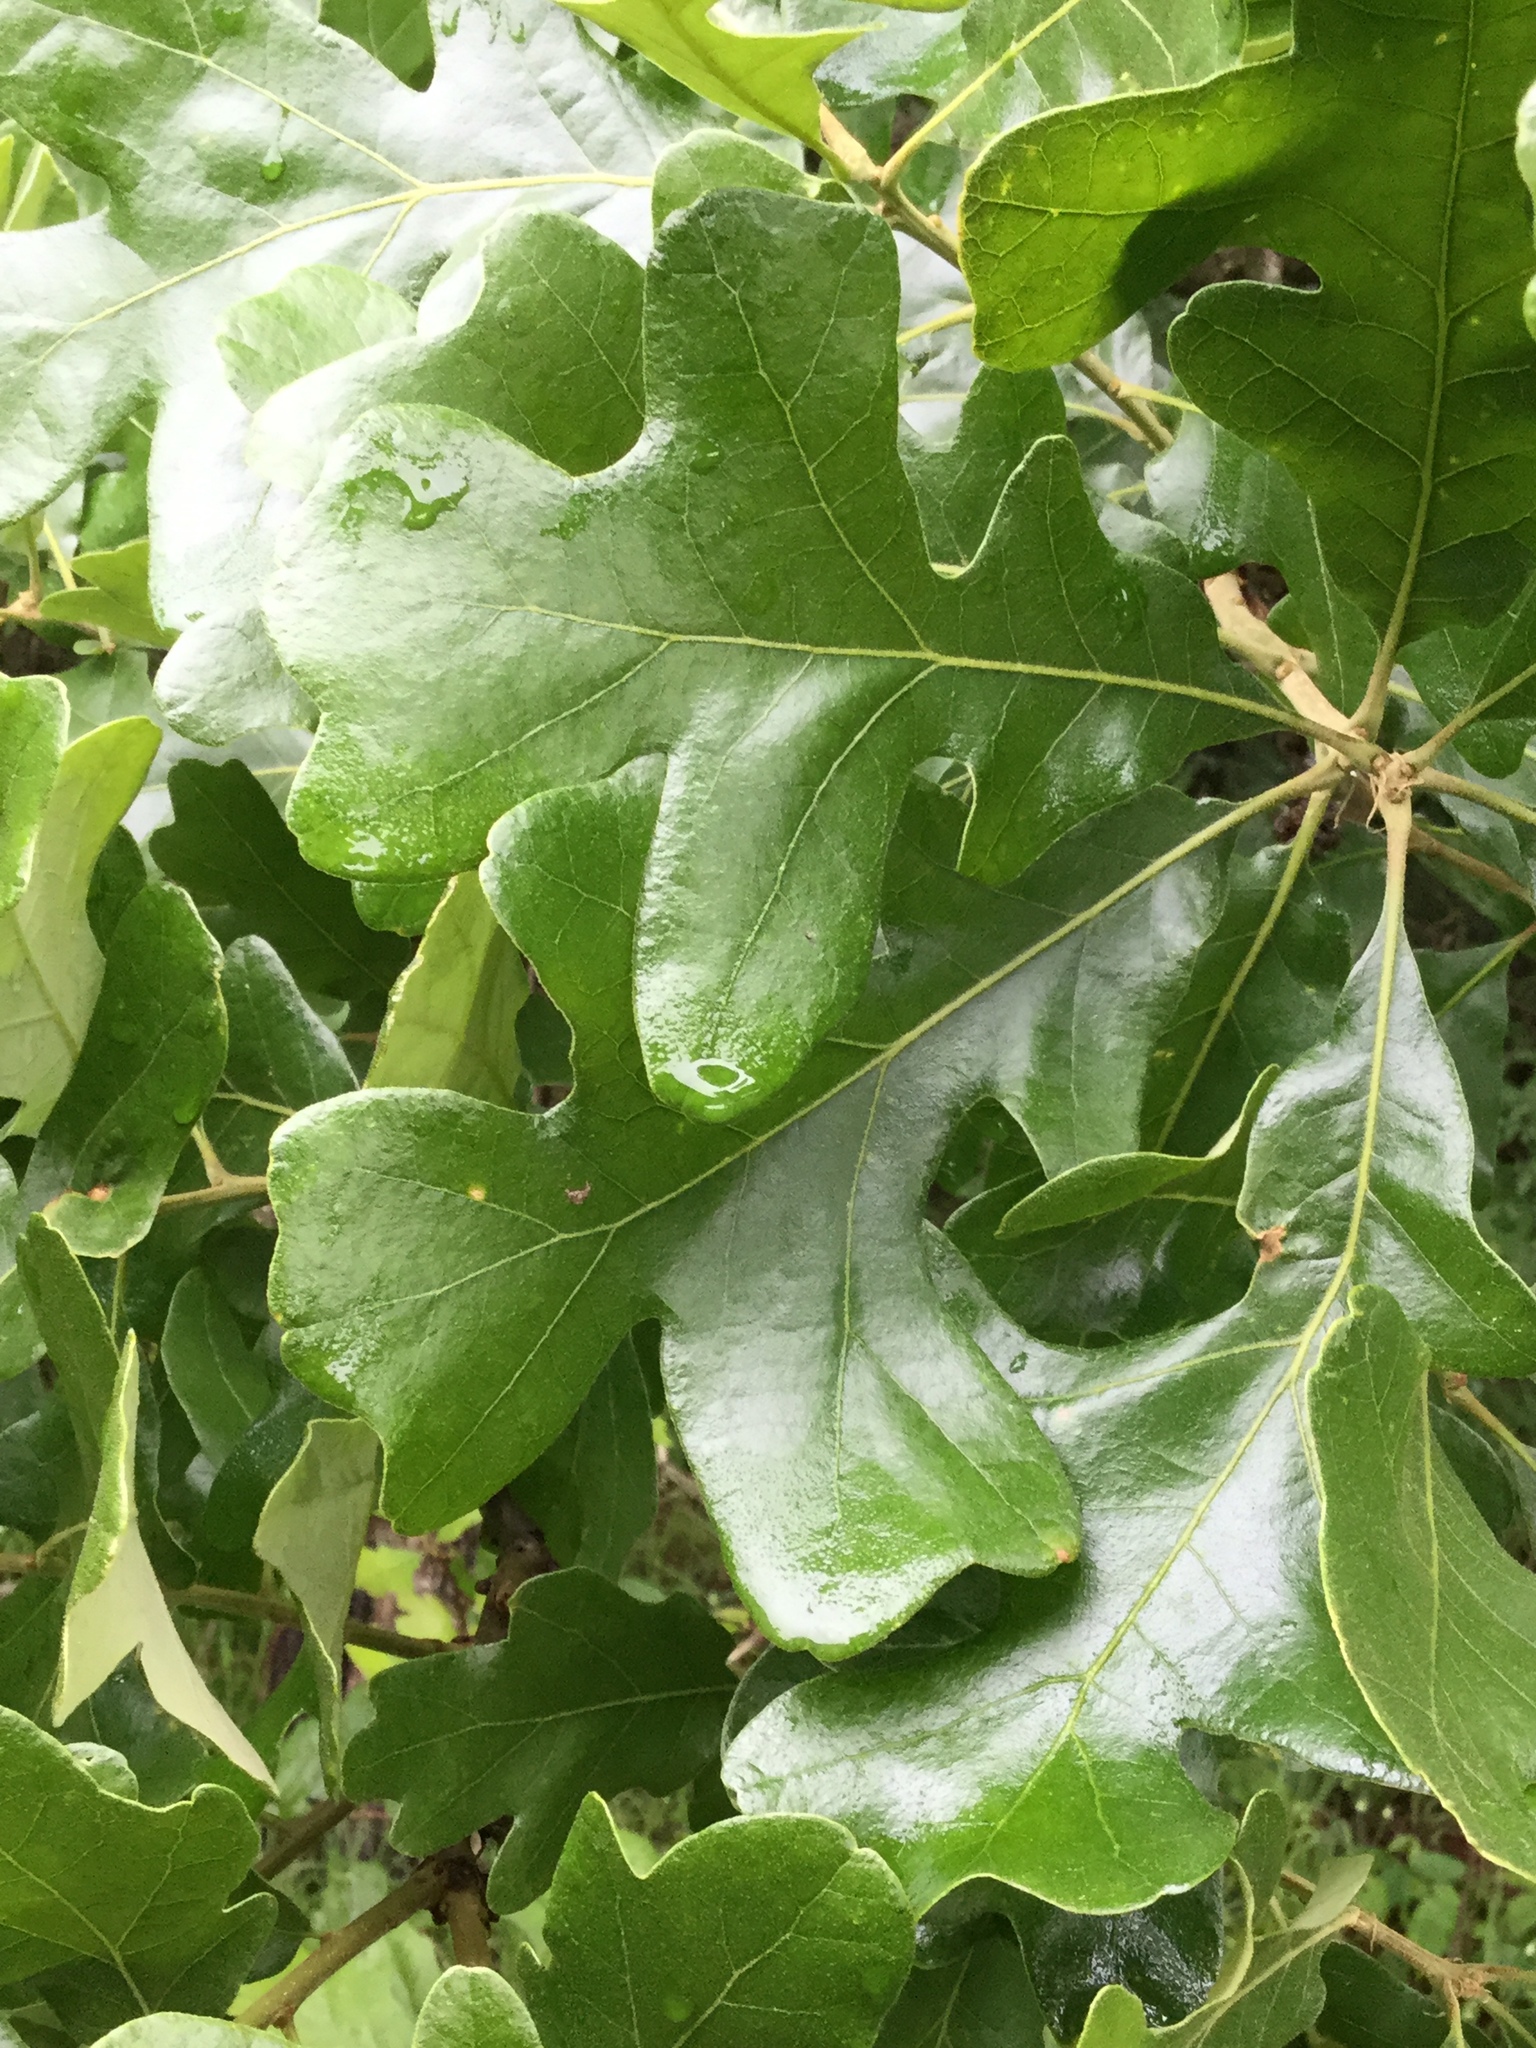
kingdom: Plantae
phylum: Tracheophyta
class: Magnoliopsida
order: Fagales
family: Fagaceae
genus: Quercus
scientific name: Quercus stellata
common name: Post oak
